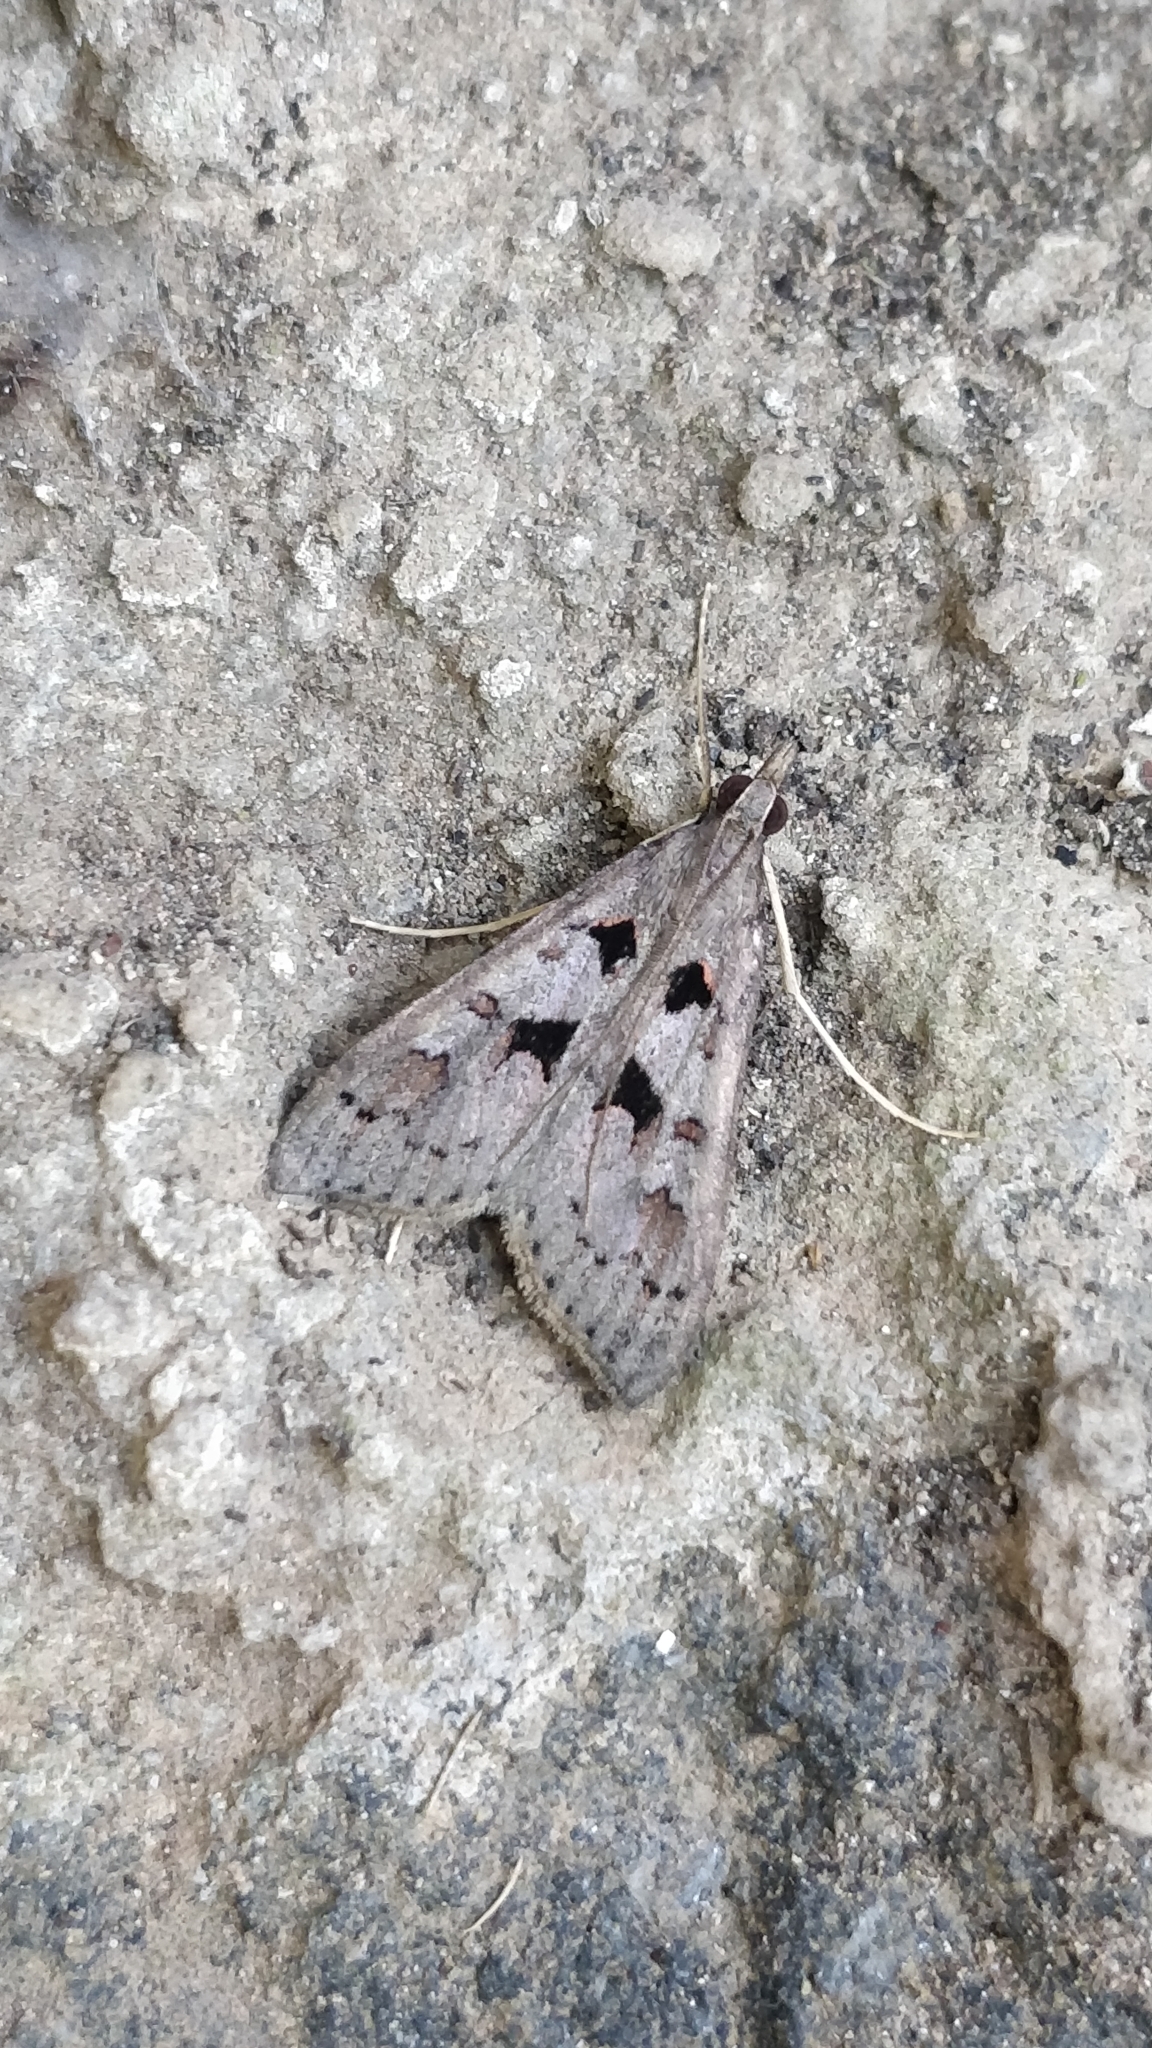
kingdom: Animalia
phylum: Arthropoda
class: Insecta
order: Lepidoptera
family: Crambidae
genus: Mecyna
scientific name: Mecyna asinalis
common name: Coastal pearl
